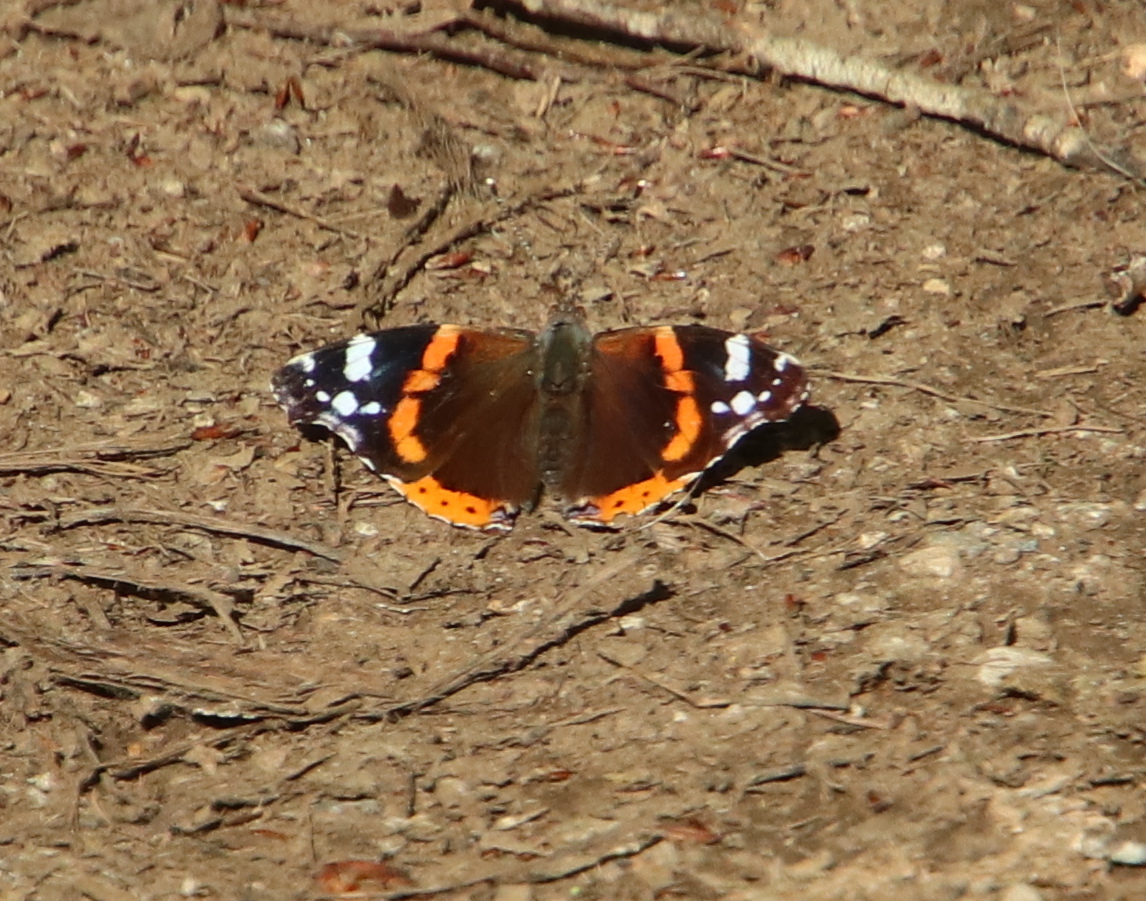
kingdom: Animalia
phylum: Arthropoda
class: Insecta
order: Lepidoptera
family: Nymphalidae
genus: Vanessa
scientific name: Vanessa atalanta
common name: Red admiral
